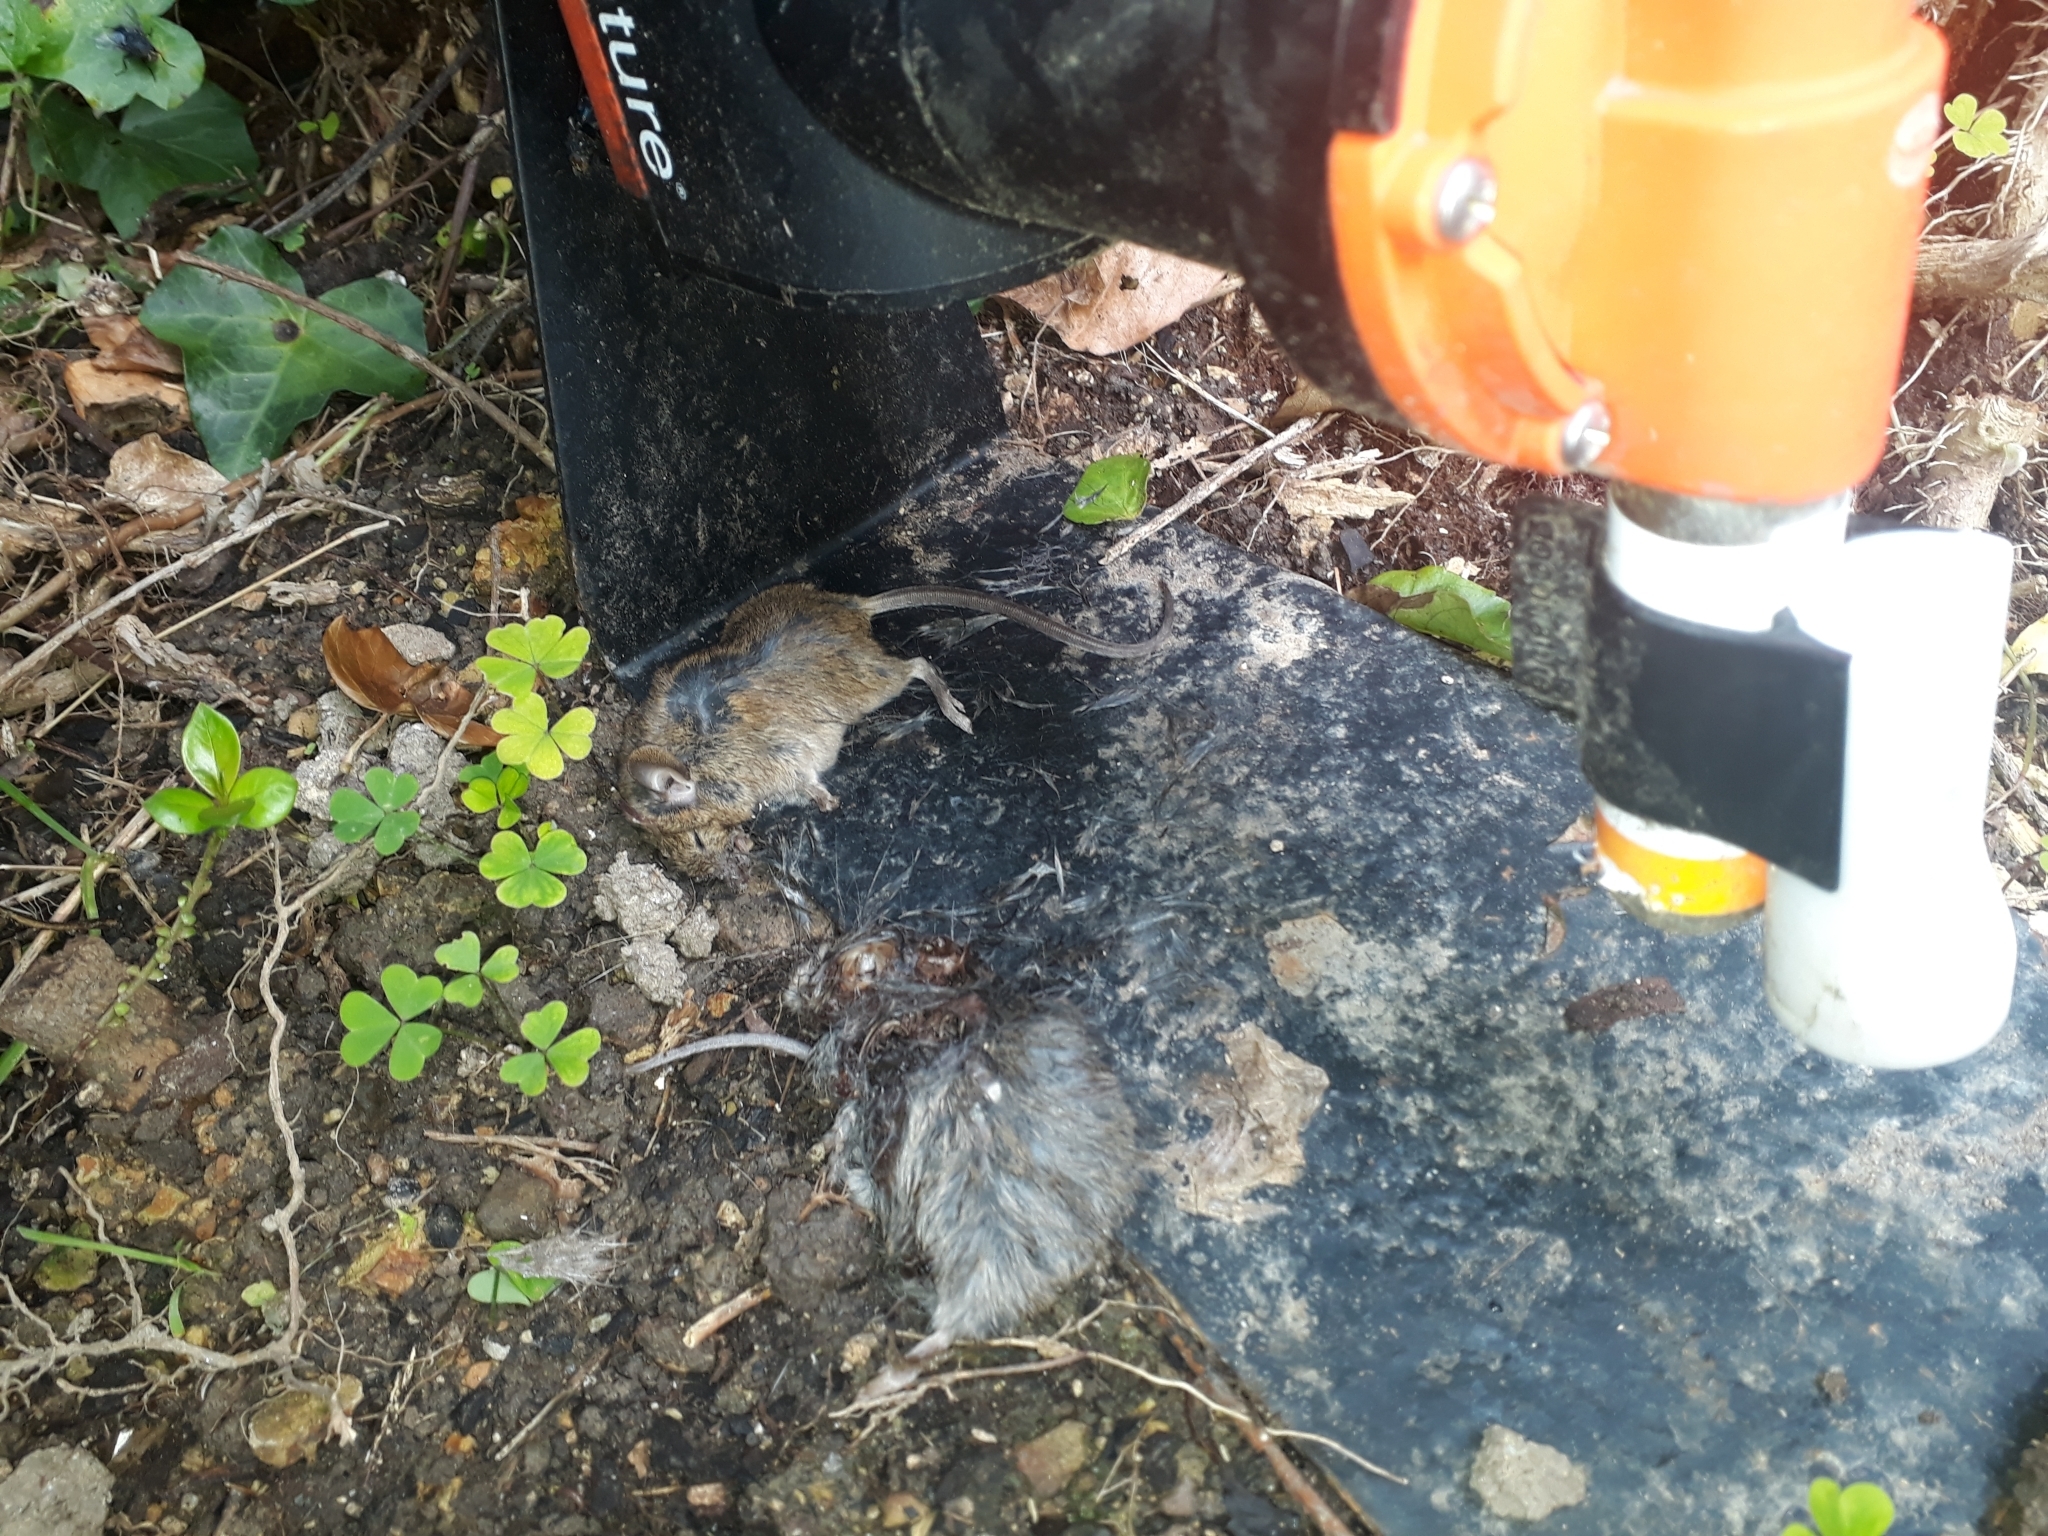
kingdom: Animalia
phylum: Chordata
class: Mammalia
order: Rodentia
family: Muridae
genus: Mus
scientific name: Mus musculus
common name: House mouse
